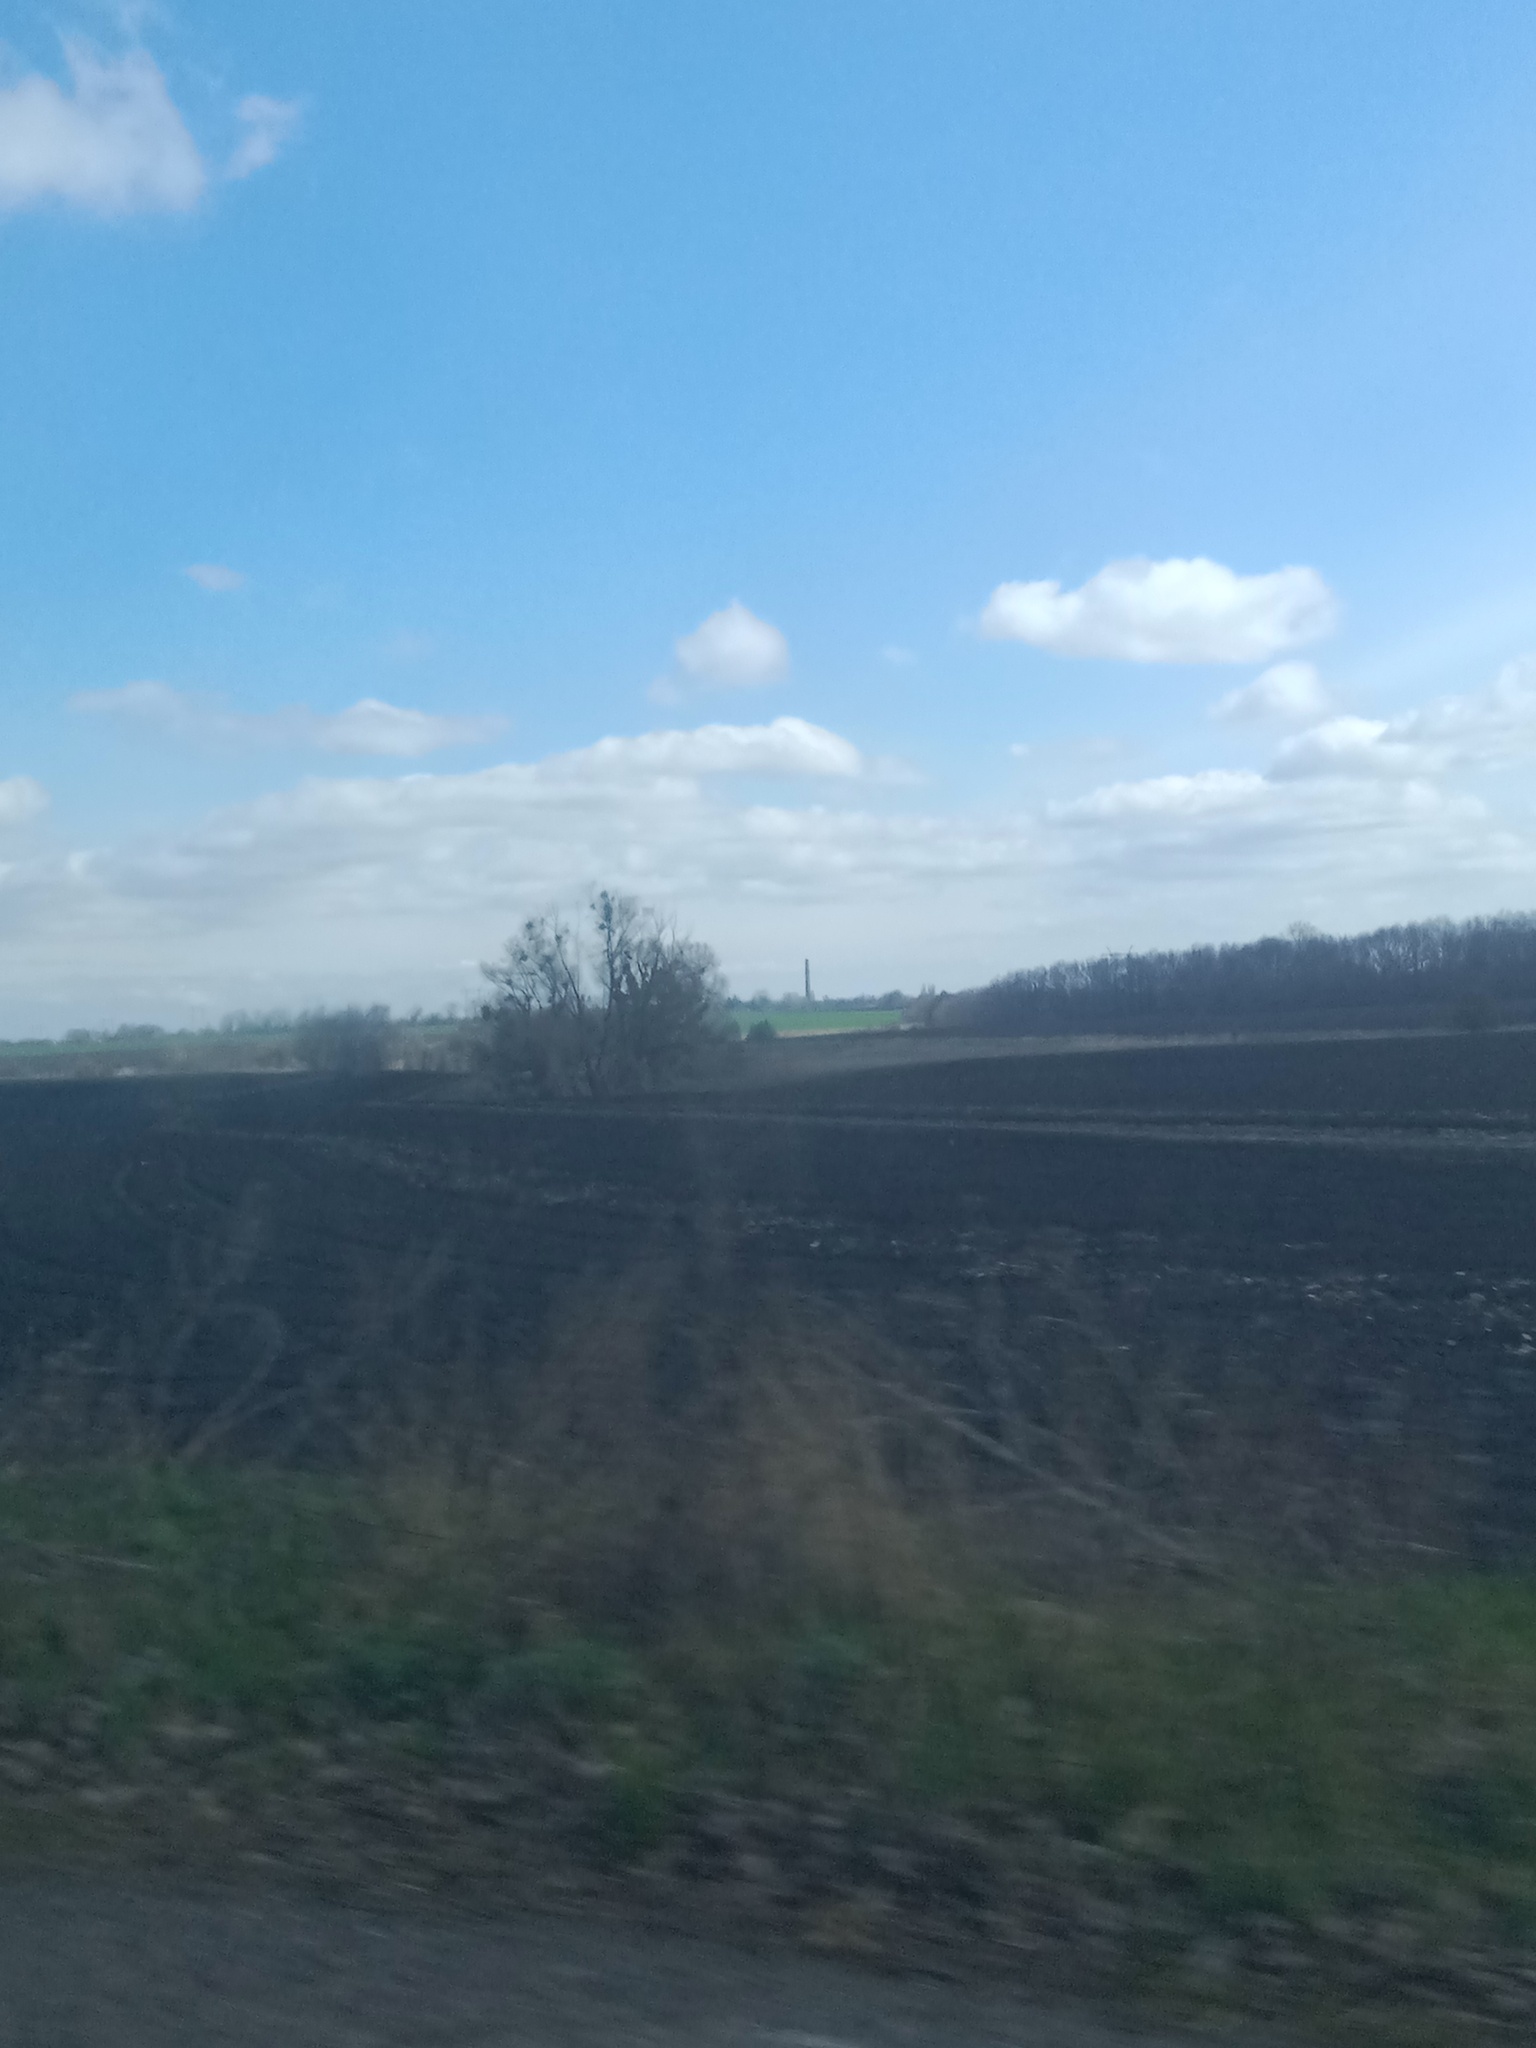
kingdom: Plantae
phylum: Tracheophyta
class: Magnoliopsida
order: Santalales
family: Viscaceae
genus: Viscum
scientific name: Viscum album
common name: Mistletoe
